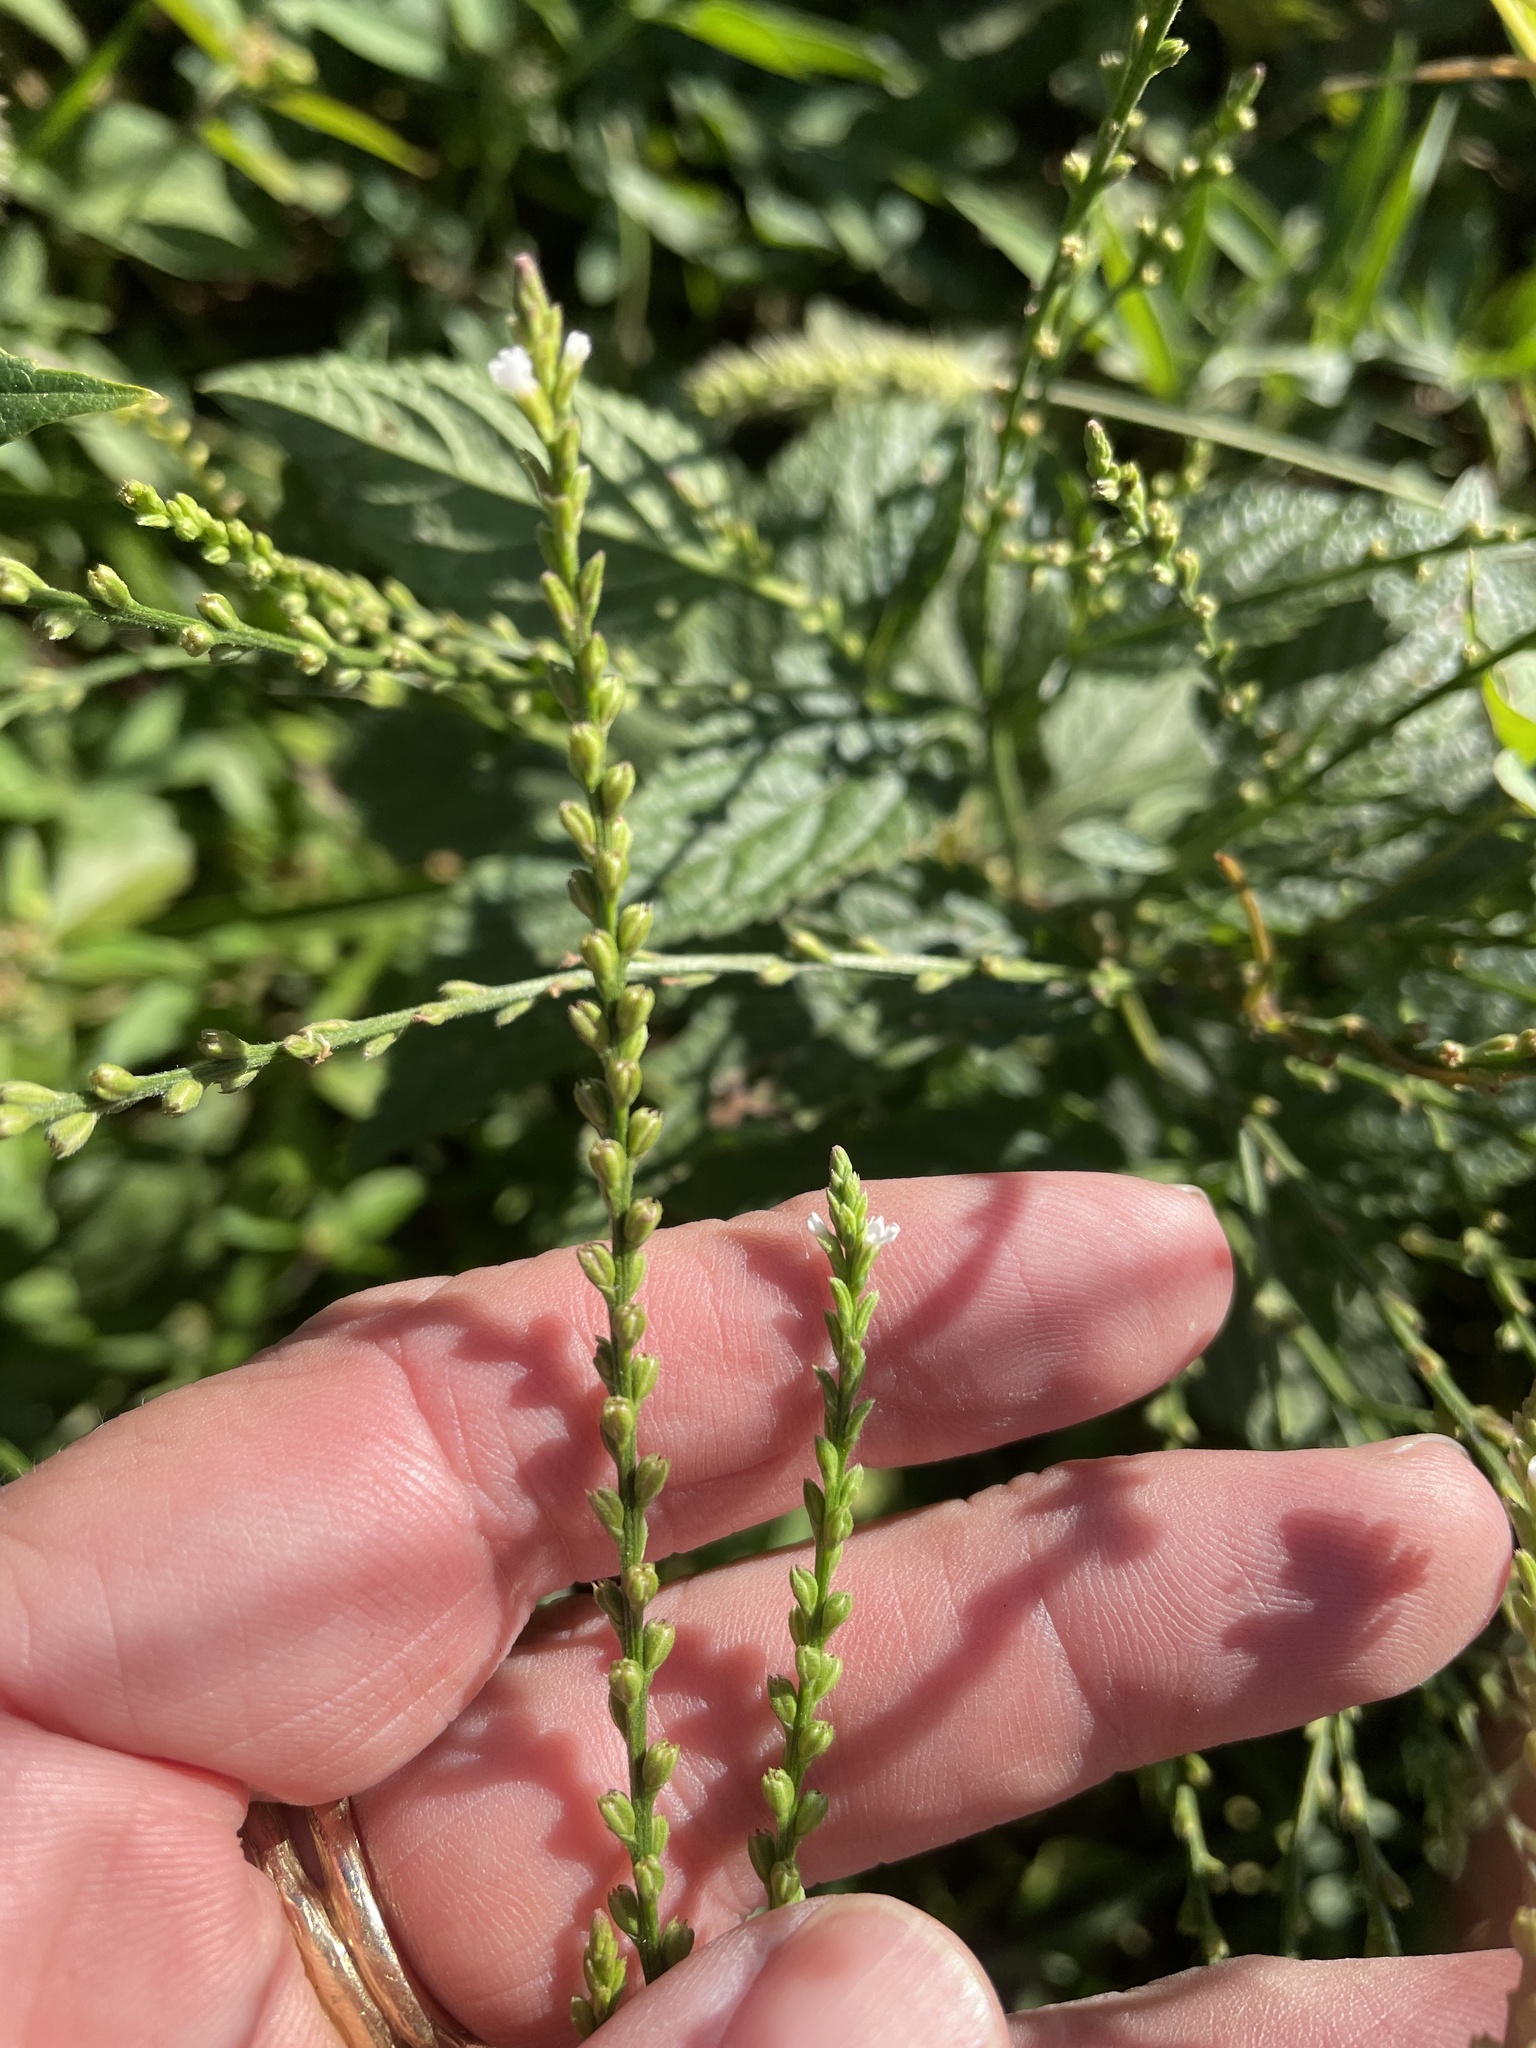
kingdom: Plantae
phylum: Tracheophyta
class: Magnoliopsida
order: Lamiales
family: Verbenaceae
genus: Verbena
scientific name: Verbena urticifolia
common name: Nettle-leaved vervain
